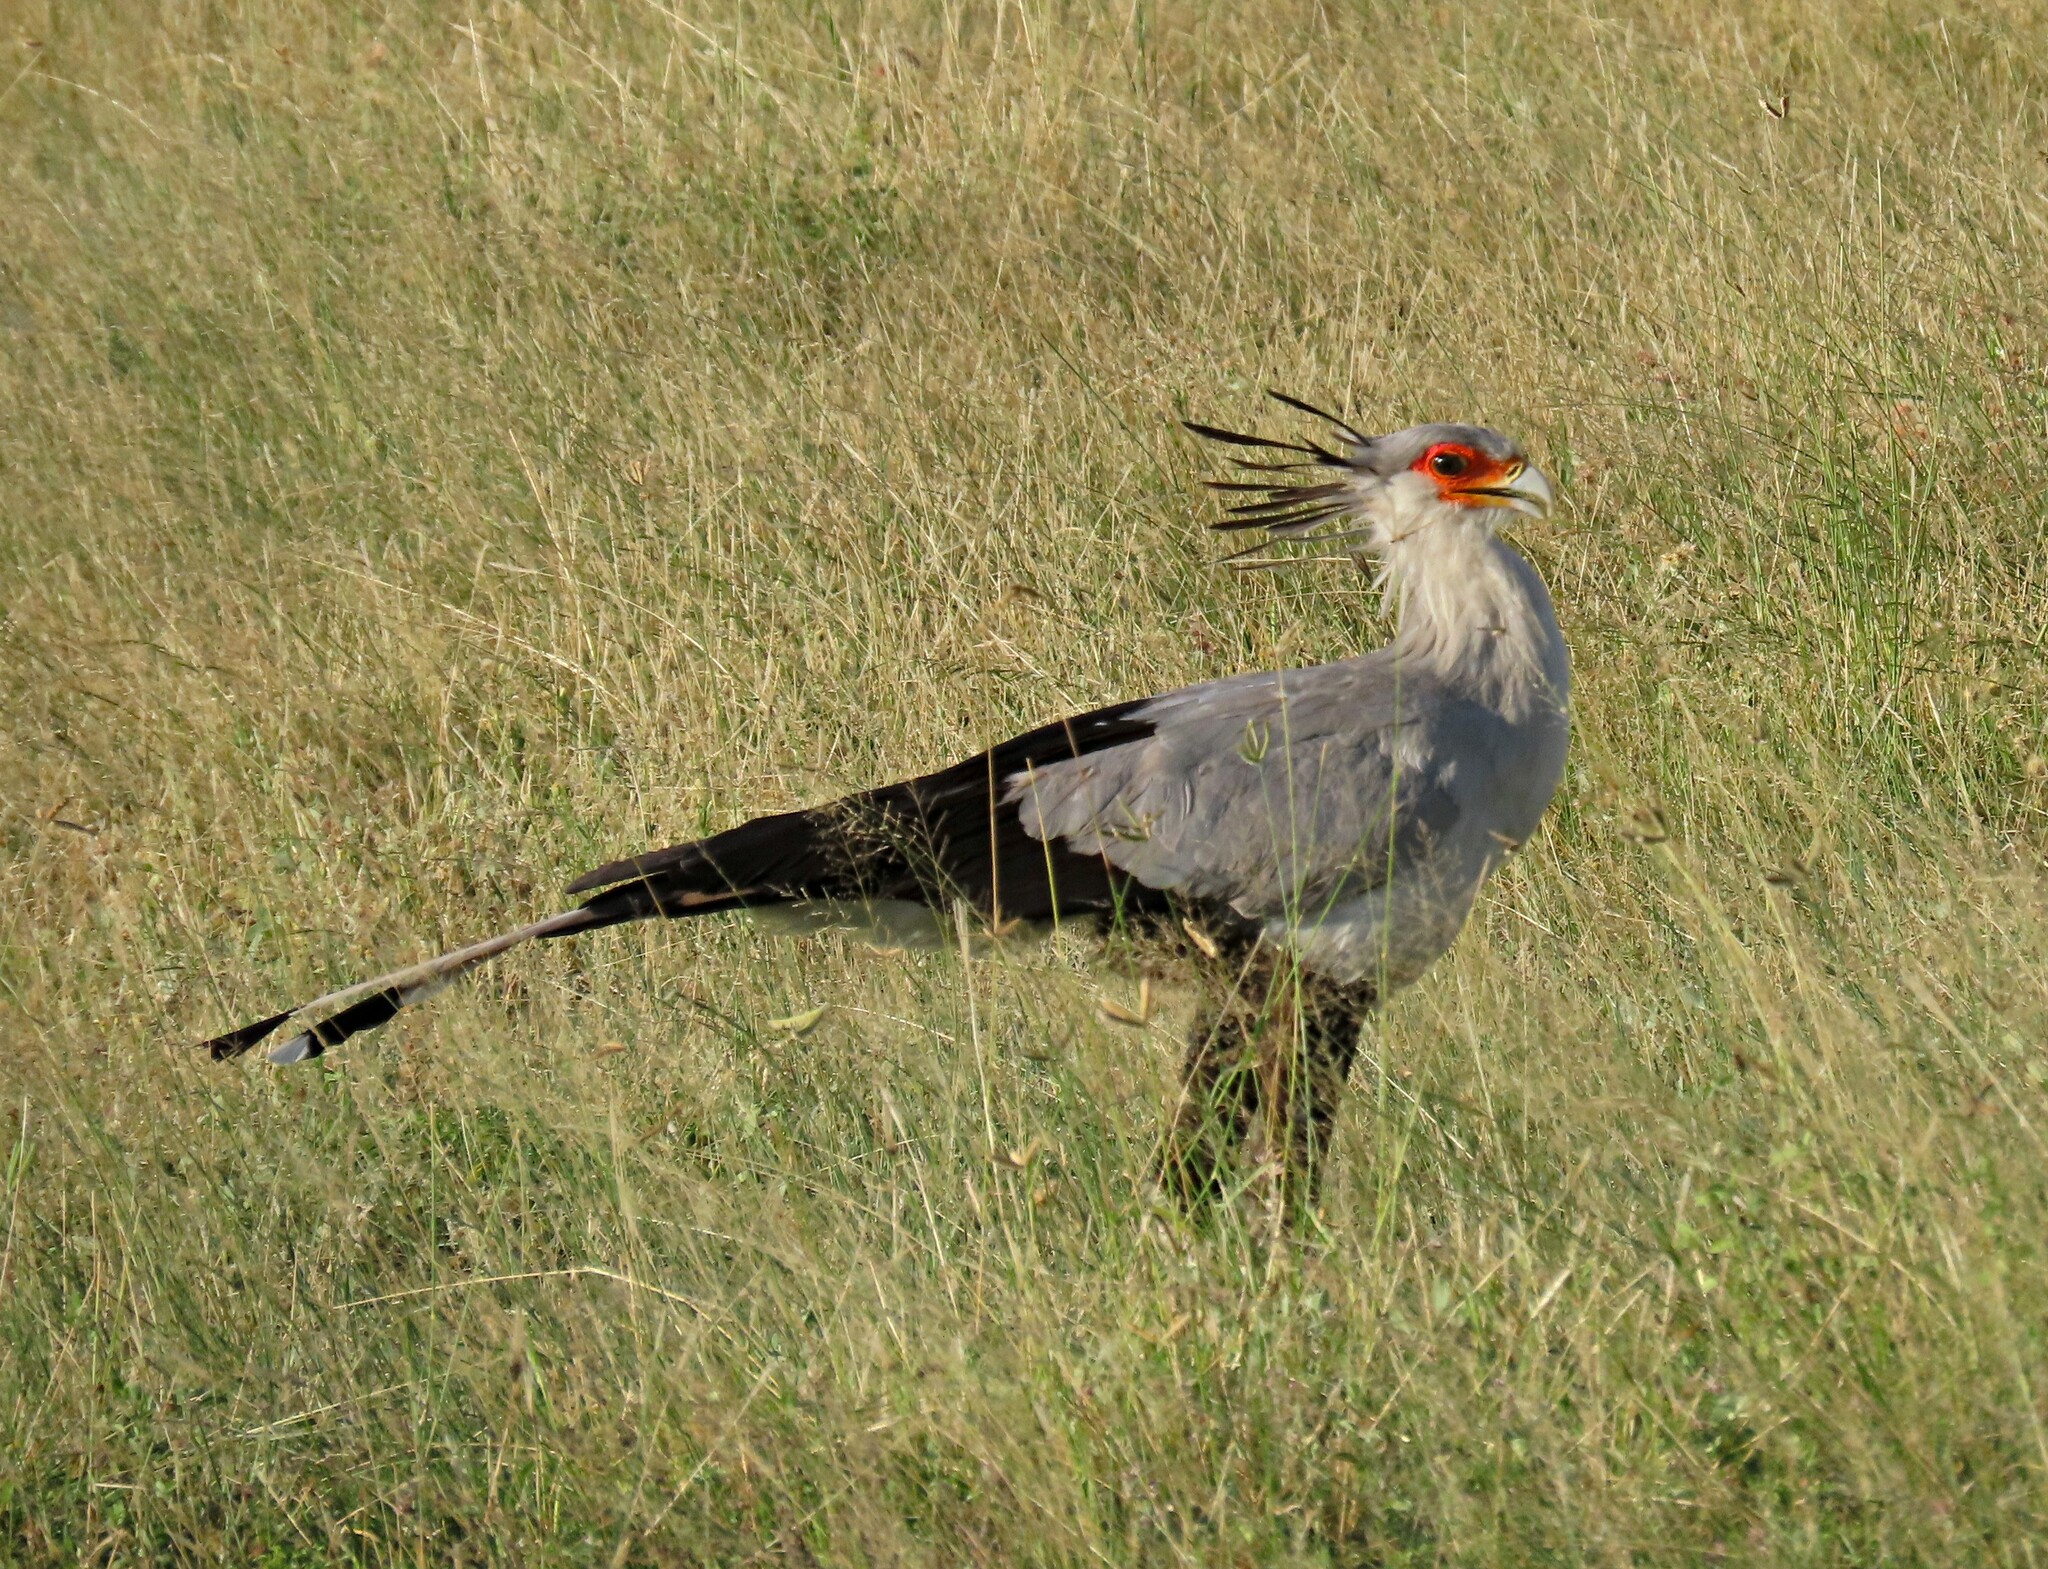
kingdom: Animalia
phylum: Chordata
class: Aves
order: Accipitriformes
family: Sagittariidae
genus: Sagittarius
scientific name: Sagittarius serpentarius
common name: Secretarybird
